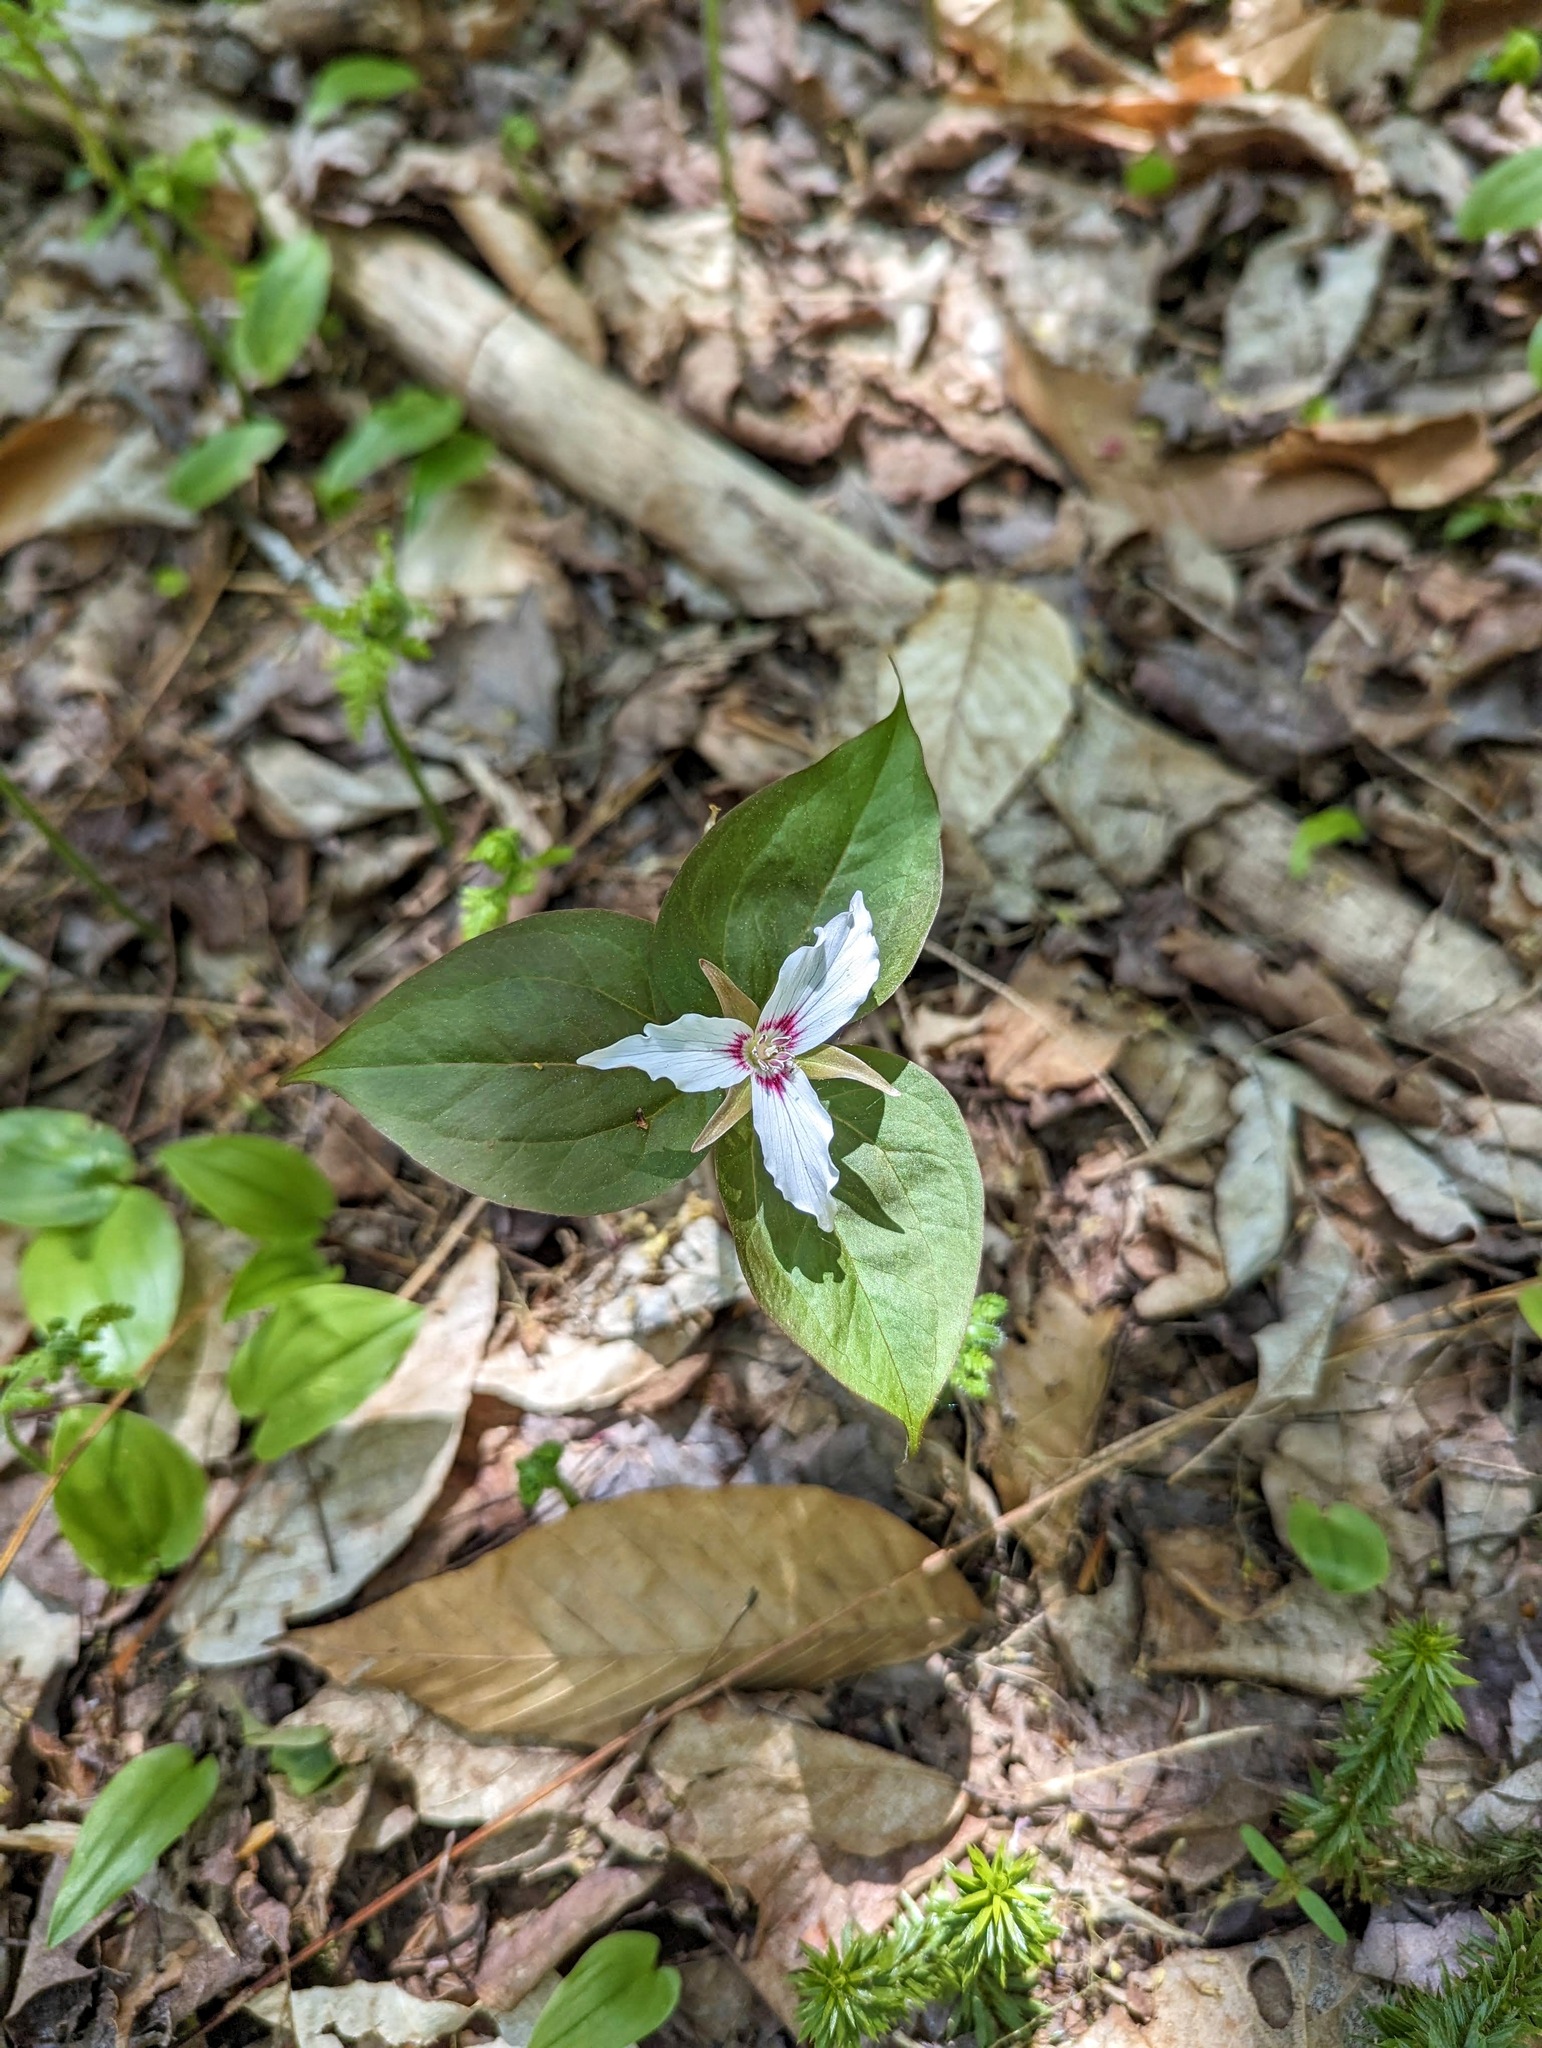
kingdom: Plantae
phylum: Tracheophyta
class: Liliopsida
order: Liliales
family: Melanthiaceae
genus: Trillium
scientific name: Trillium undulatum
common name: Paint trillium
